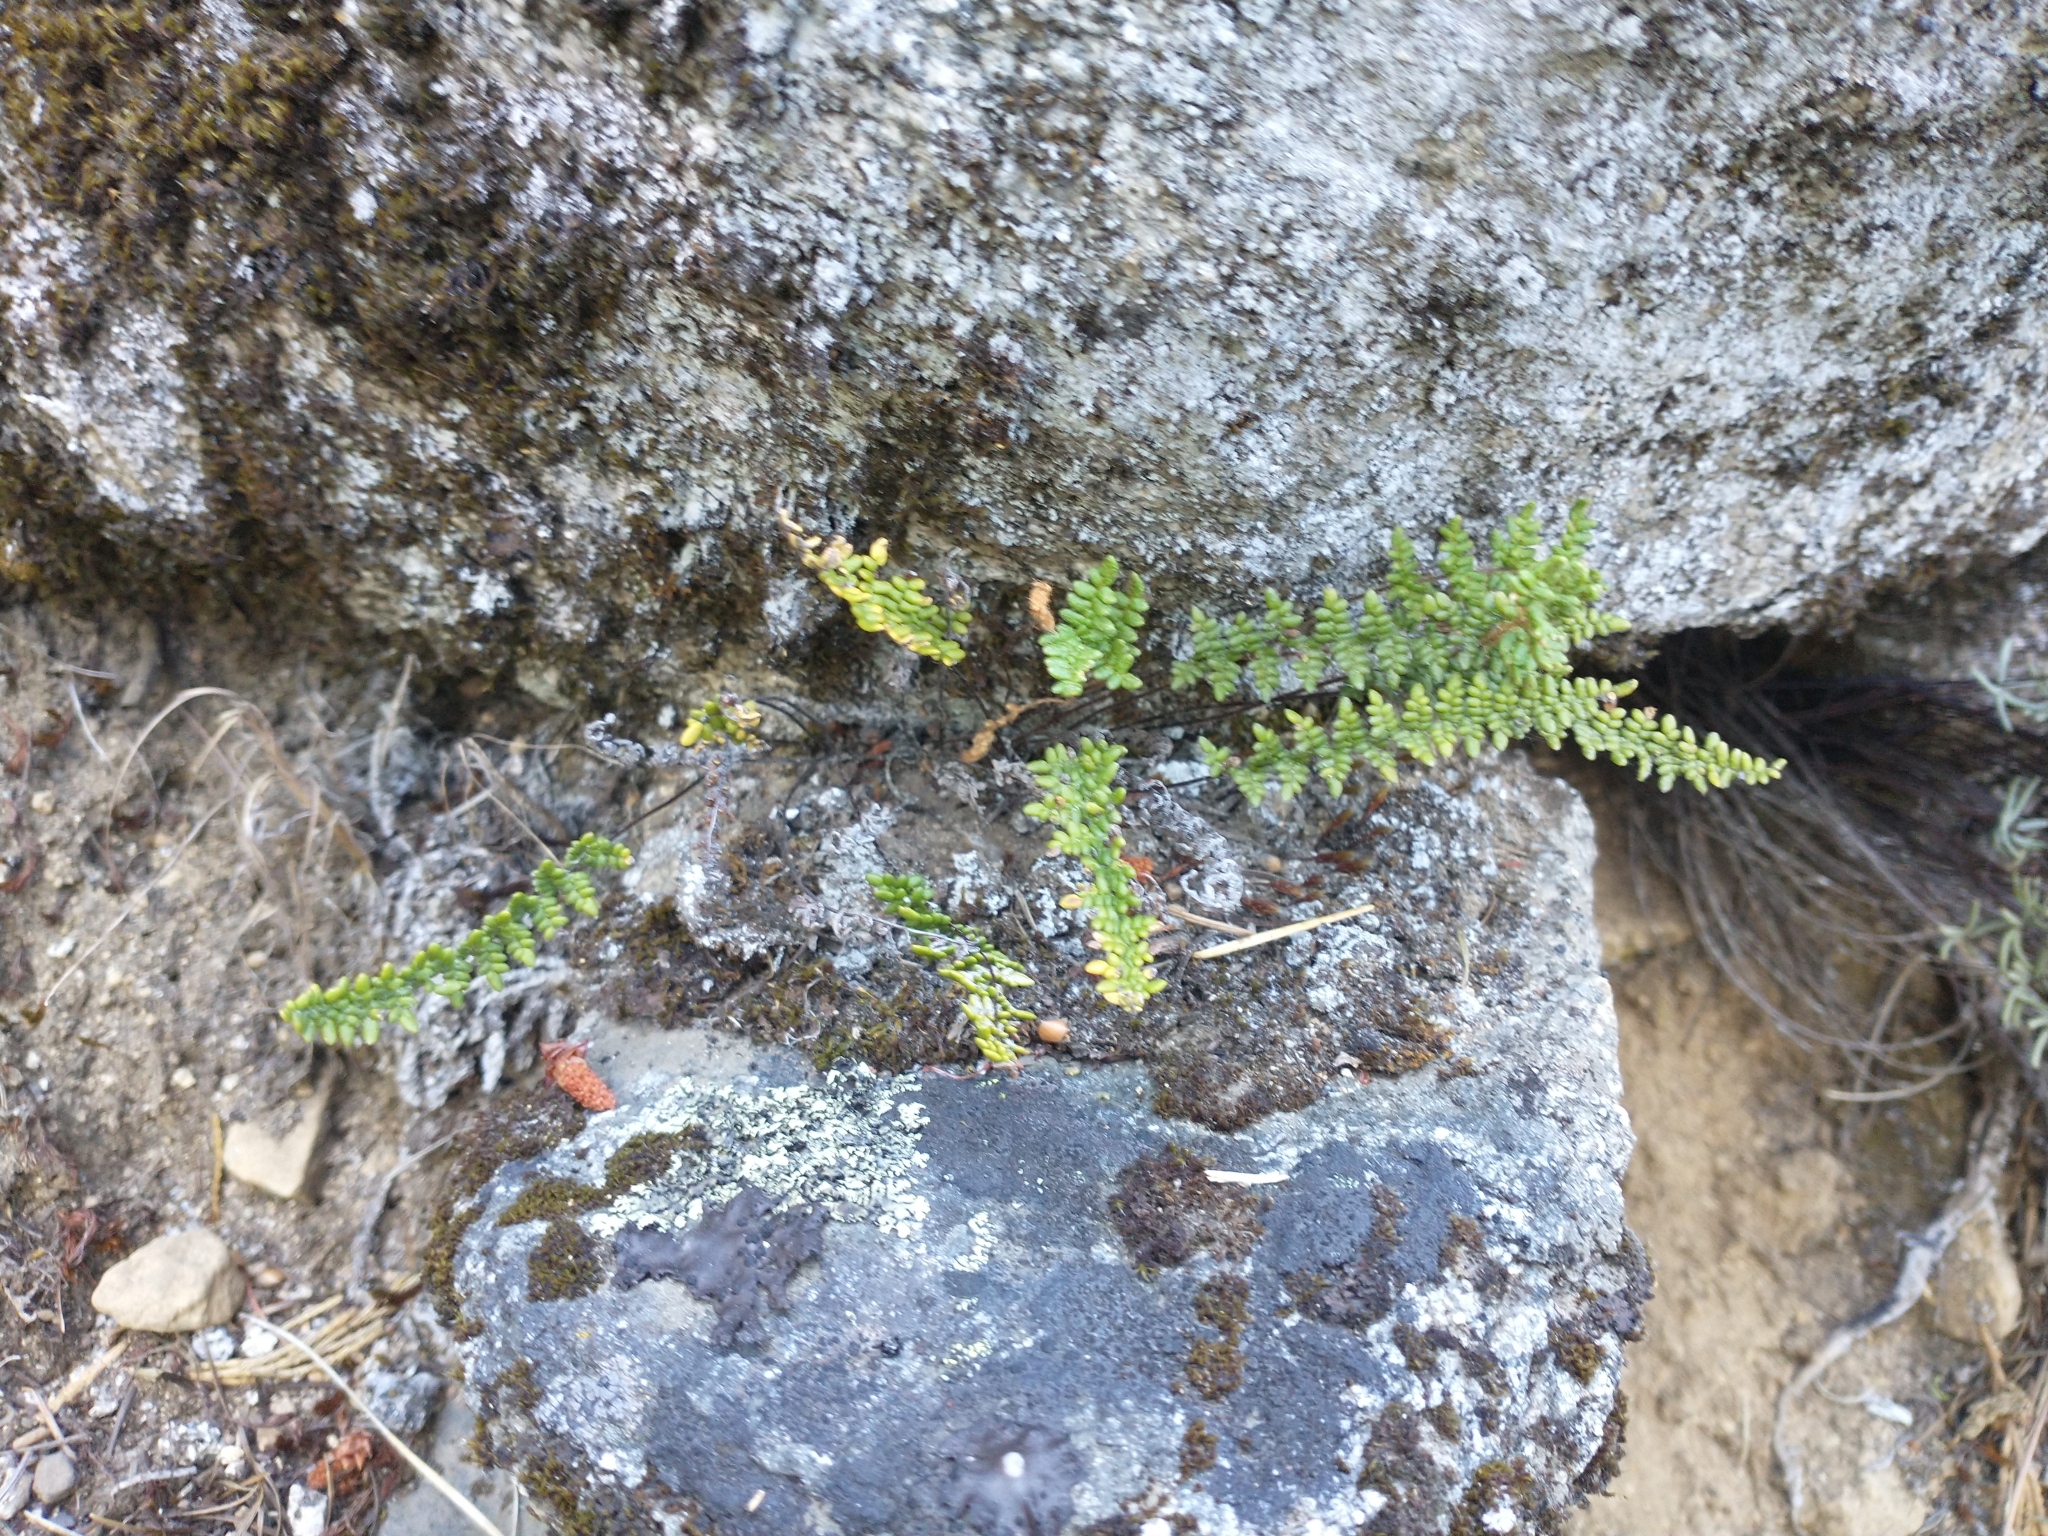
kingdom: Plantae
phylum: Tracheophyta
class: Polypodiopsida
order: Polypodiales
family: Pteridaceae
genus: Myriopteris
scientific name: Myriopteris gracillima
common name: Lace fern
